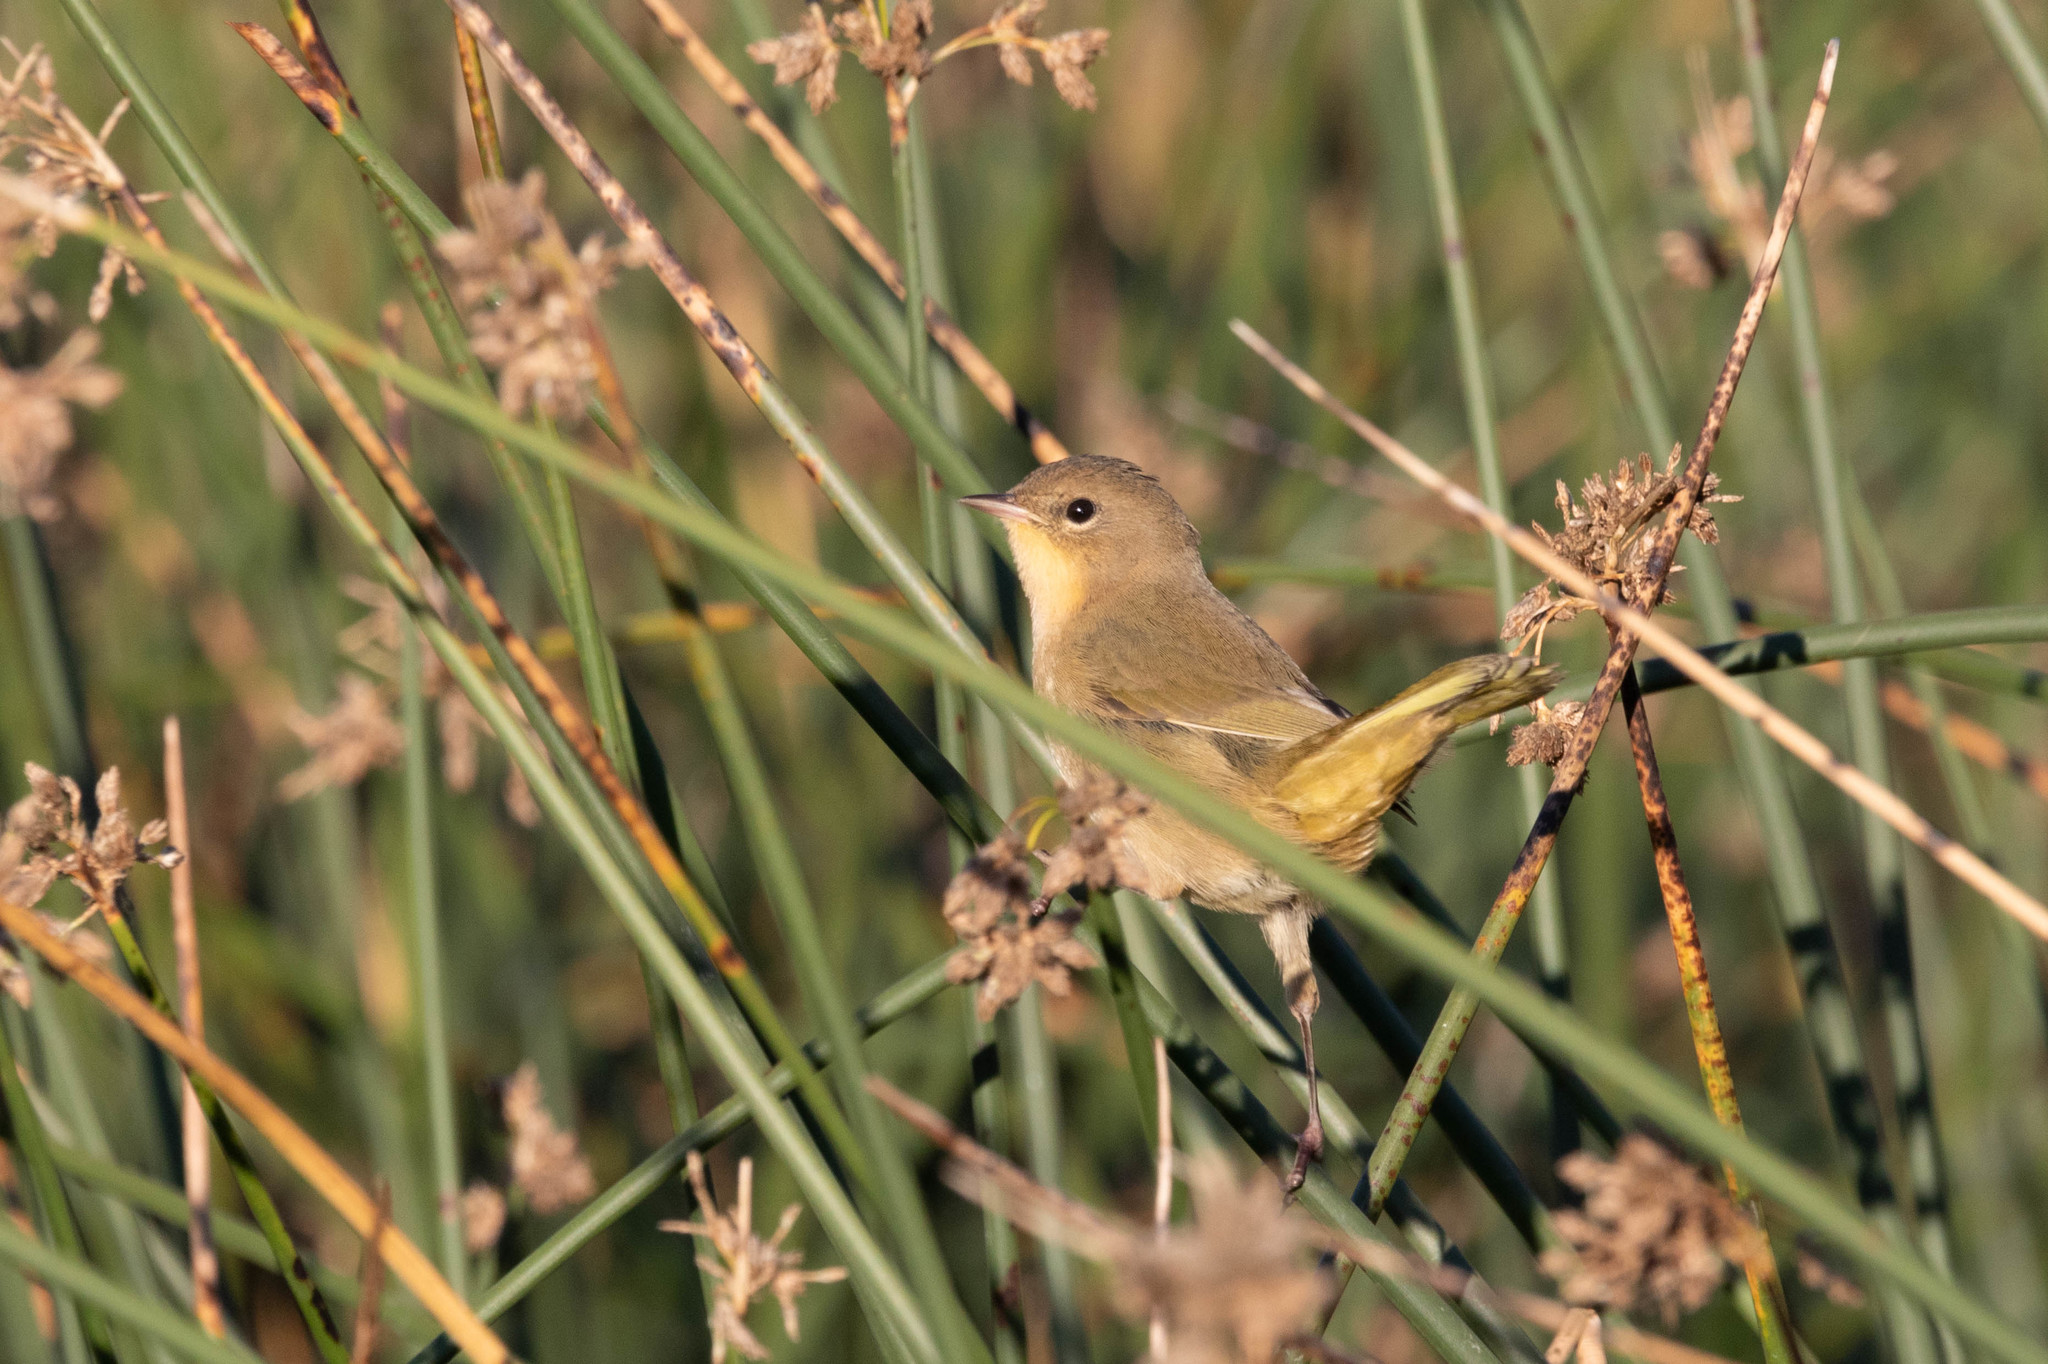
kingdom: Animalia
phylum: Chordata
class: Aves
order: Passeriformes
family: Parulidae
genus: Geothlypis
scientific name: Geothlypis trichas
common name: Common yellowthroat
